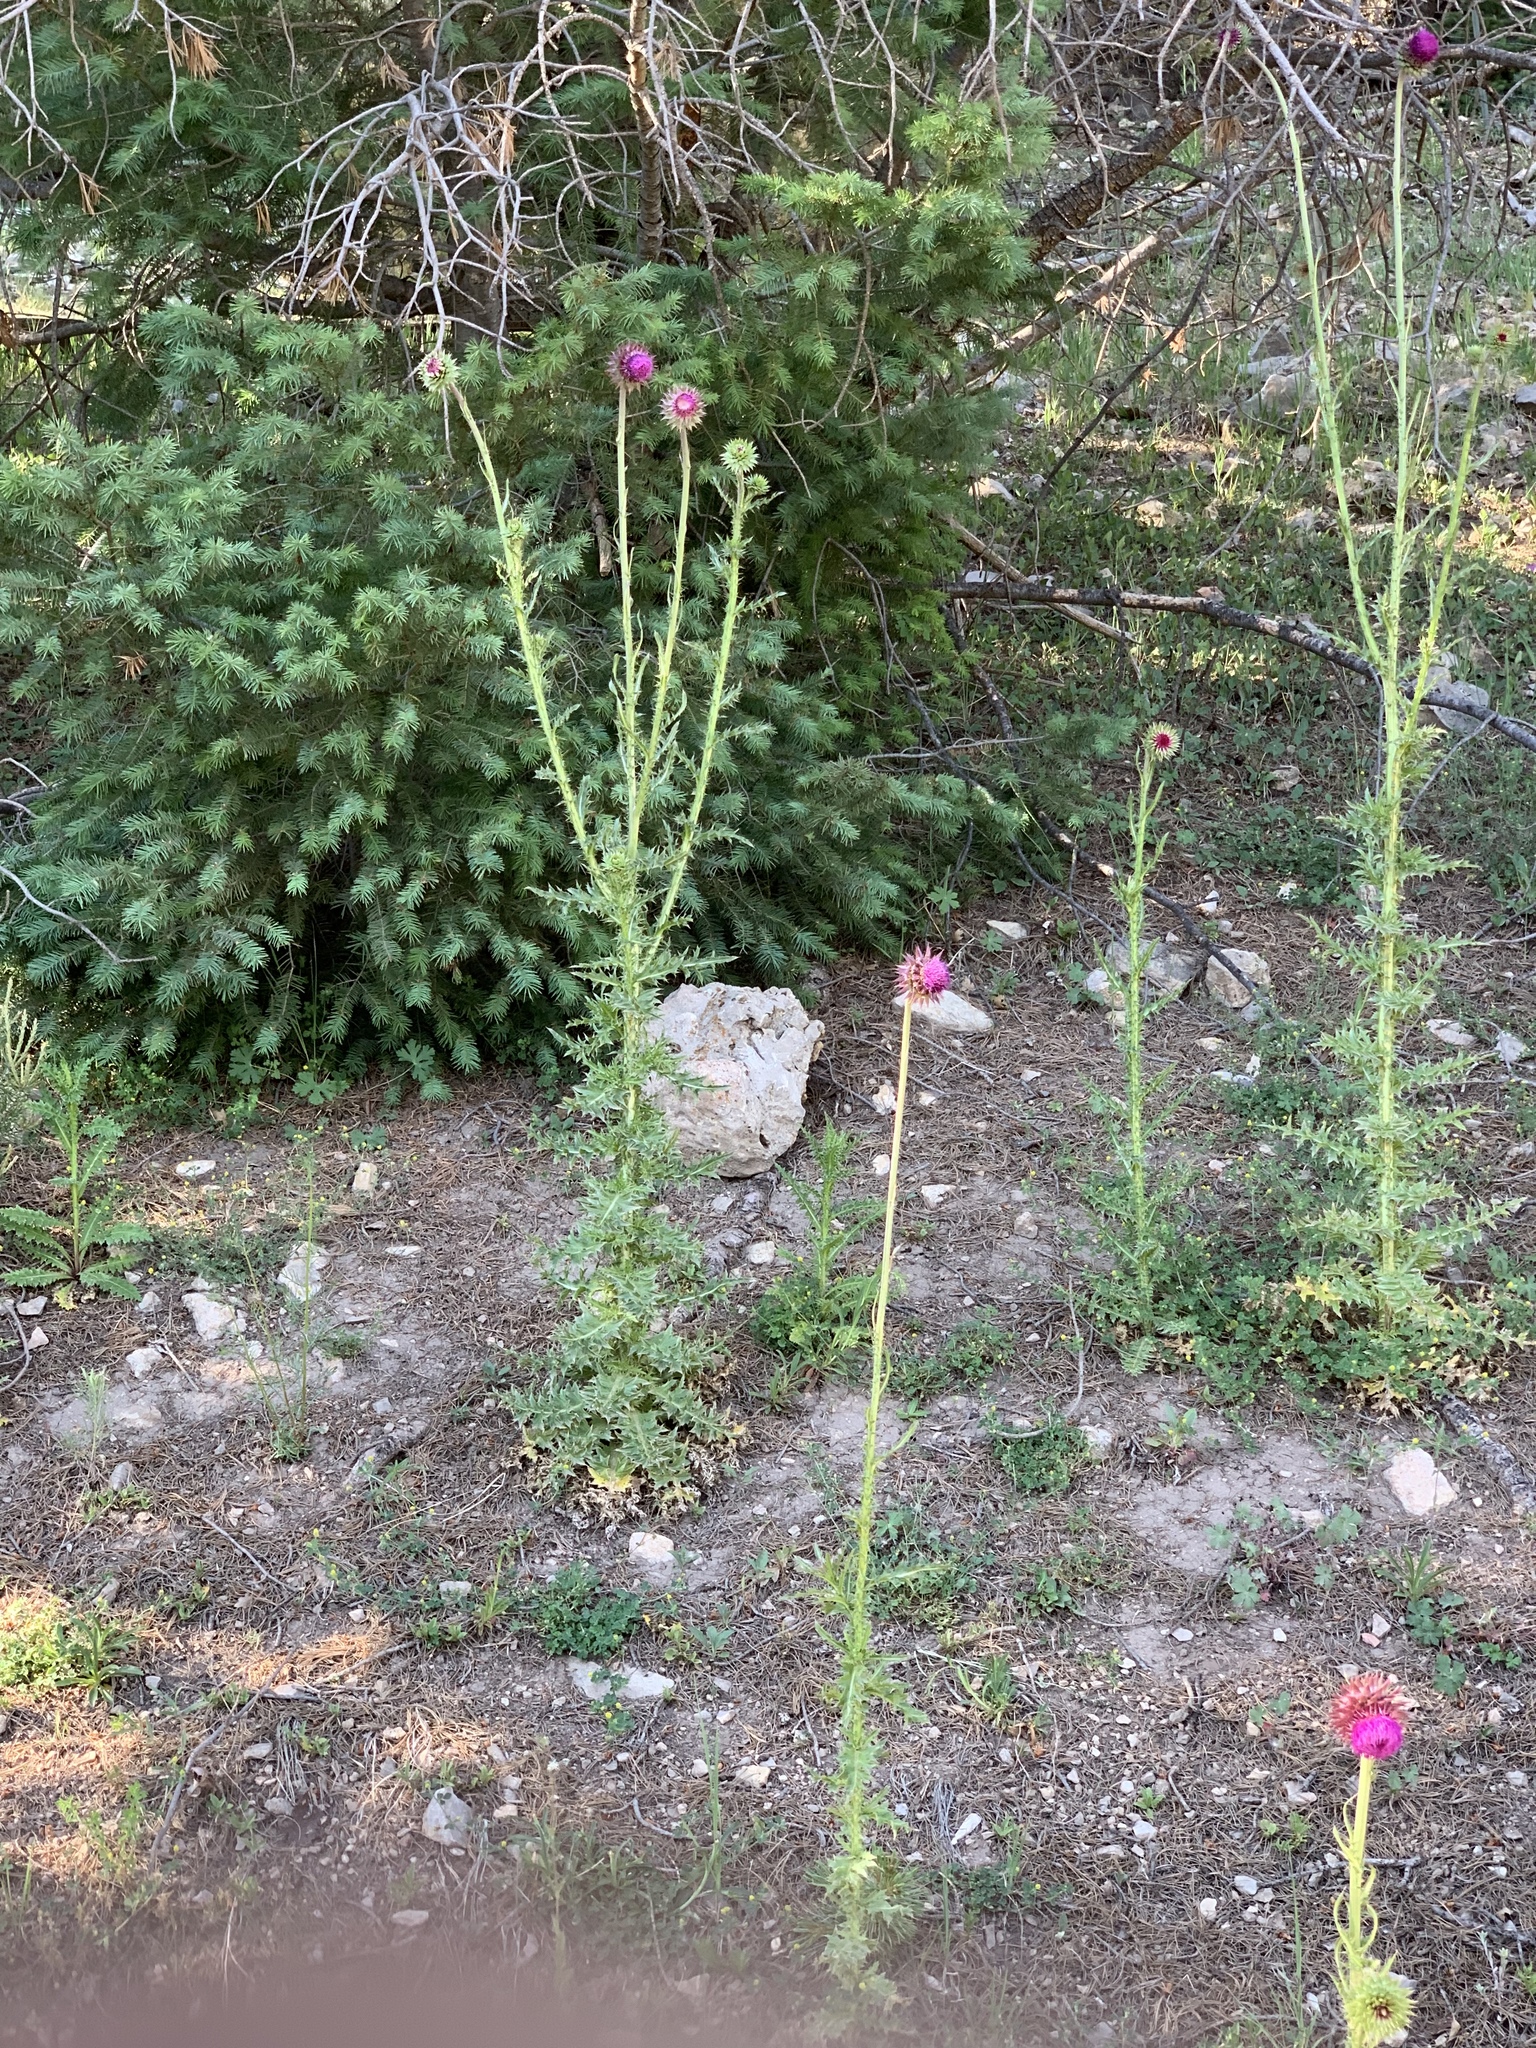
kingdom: Plantae
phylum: Tracheophyta
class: Magnoliopsida
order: Asterales
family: Asteraceae
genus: Carduus
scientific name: Carduus nutans
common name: Musk thistle
